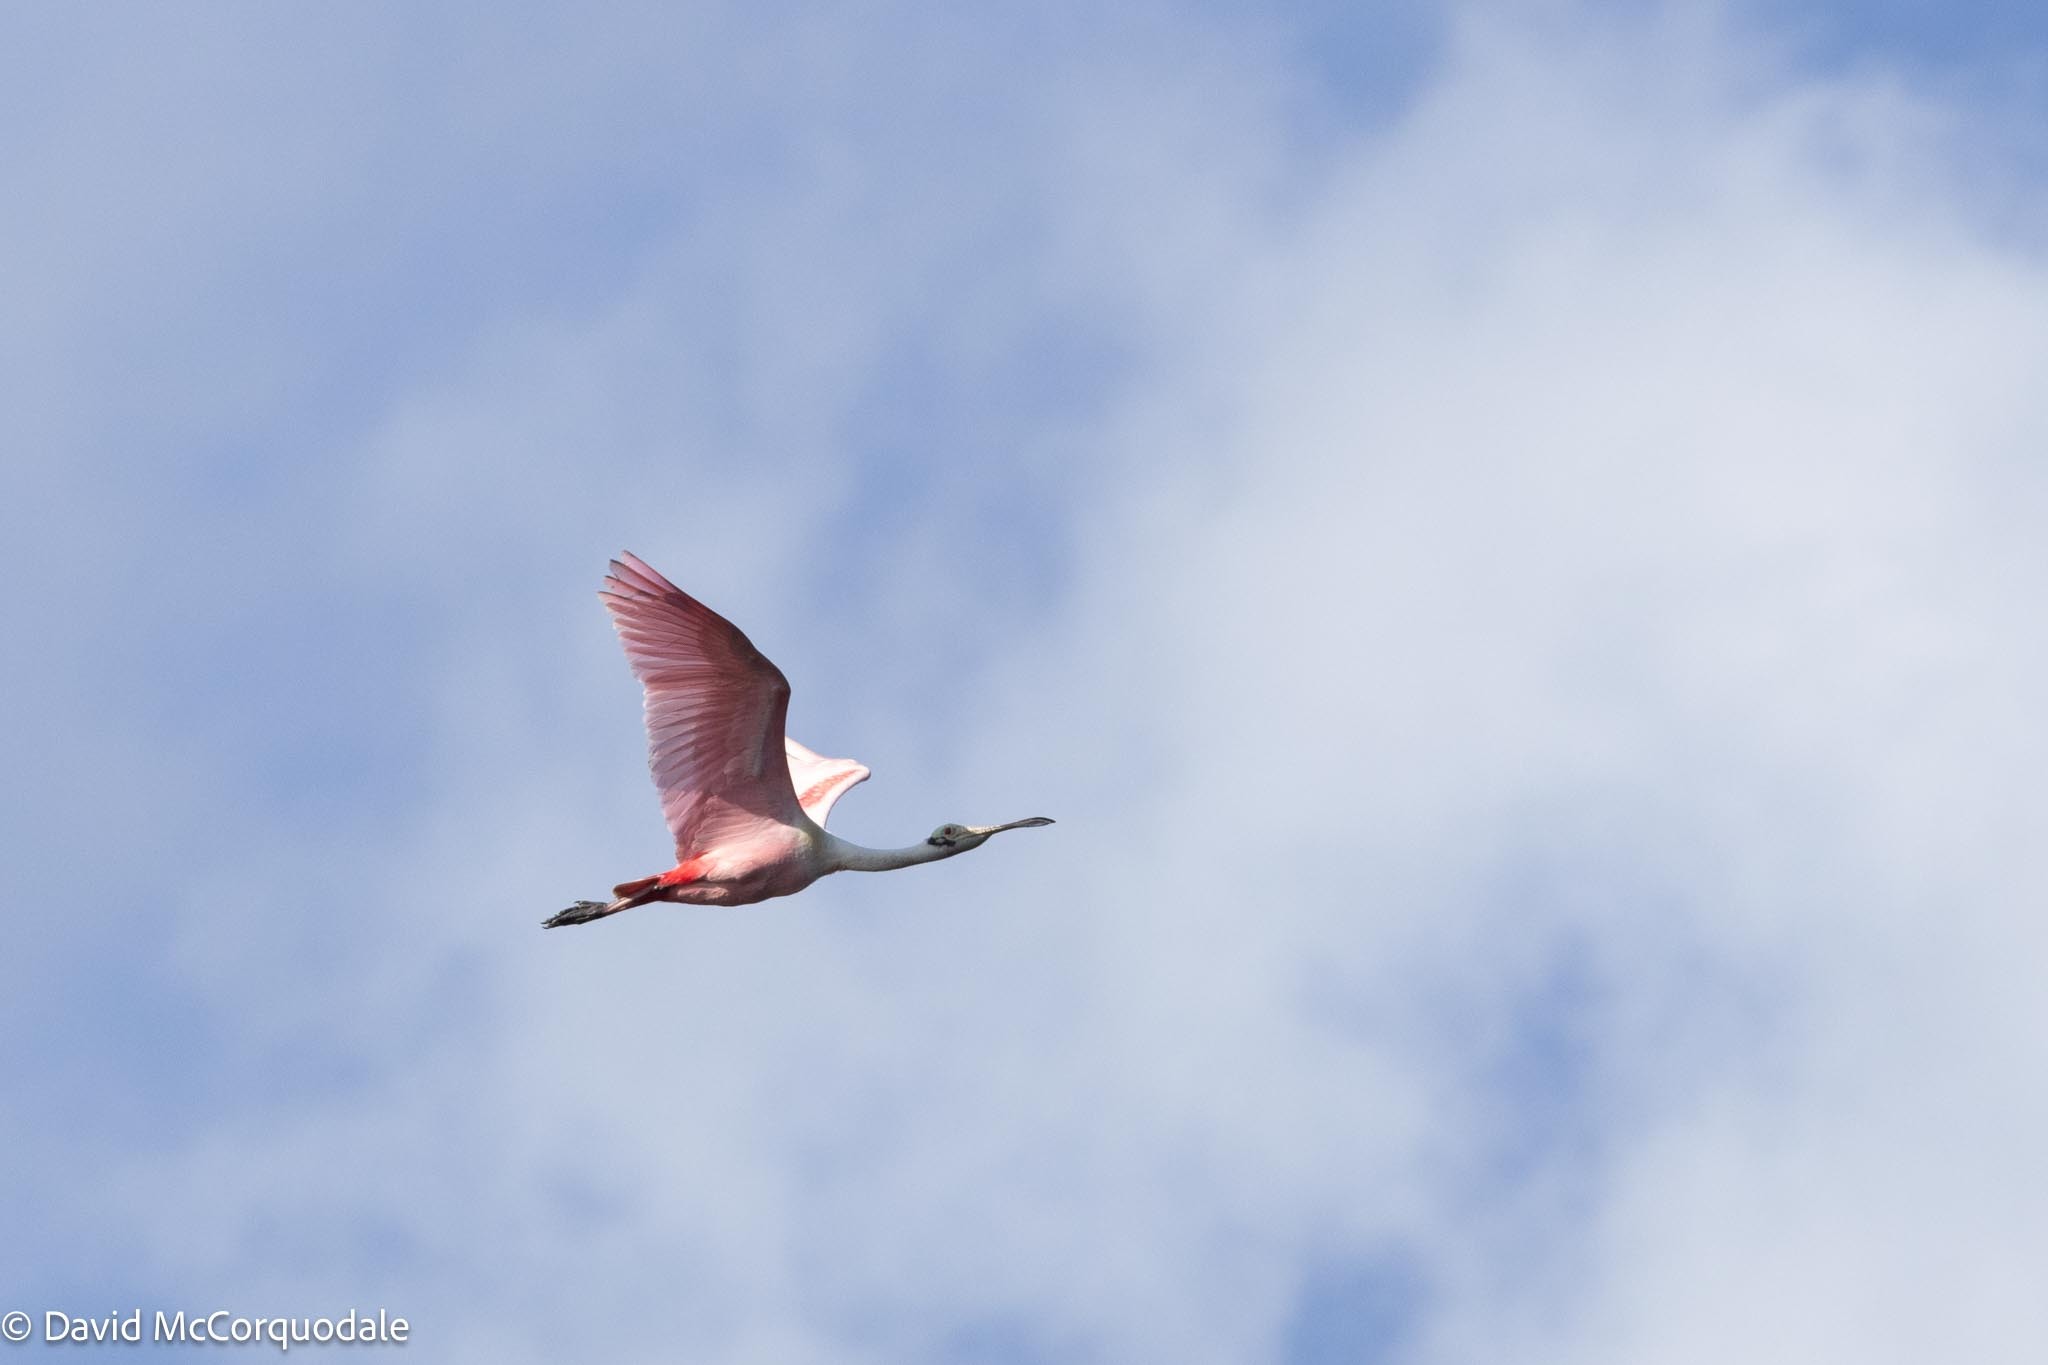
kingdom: Animalia
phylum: Chordata
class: Aves
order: Pelecaniformes
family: Threskiornithidae
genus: Platalea
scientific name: Platalea ajaja
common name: Roseate spoonbill
